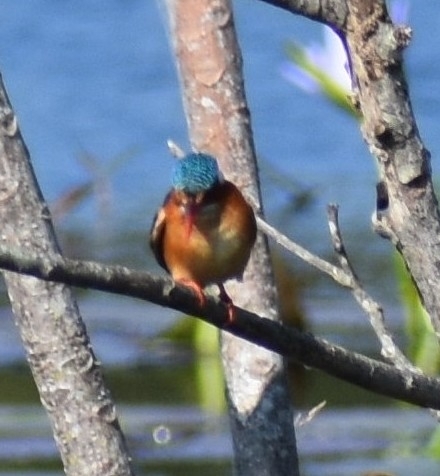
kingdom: Animalia
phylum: Chordata
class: Aves
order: Coraciiformes
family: Alcedinidae
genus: Corythornis
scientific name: Corythornis cristatus
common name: Malachite kingfisher
